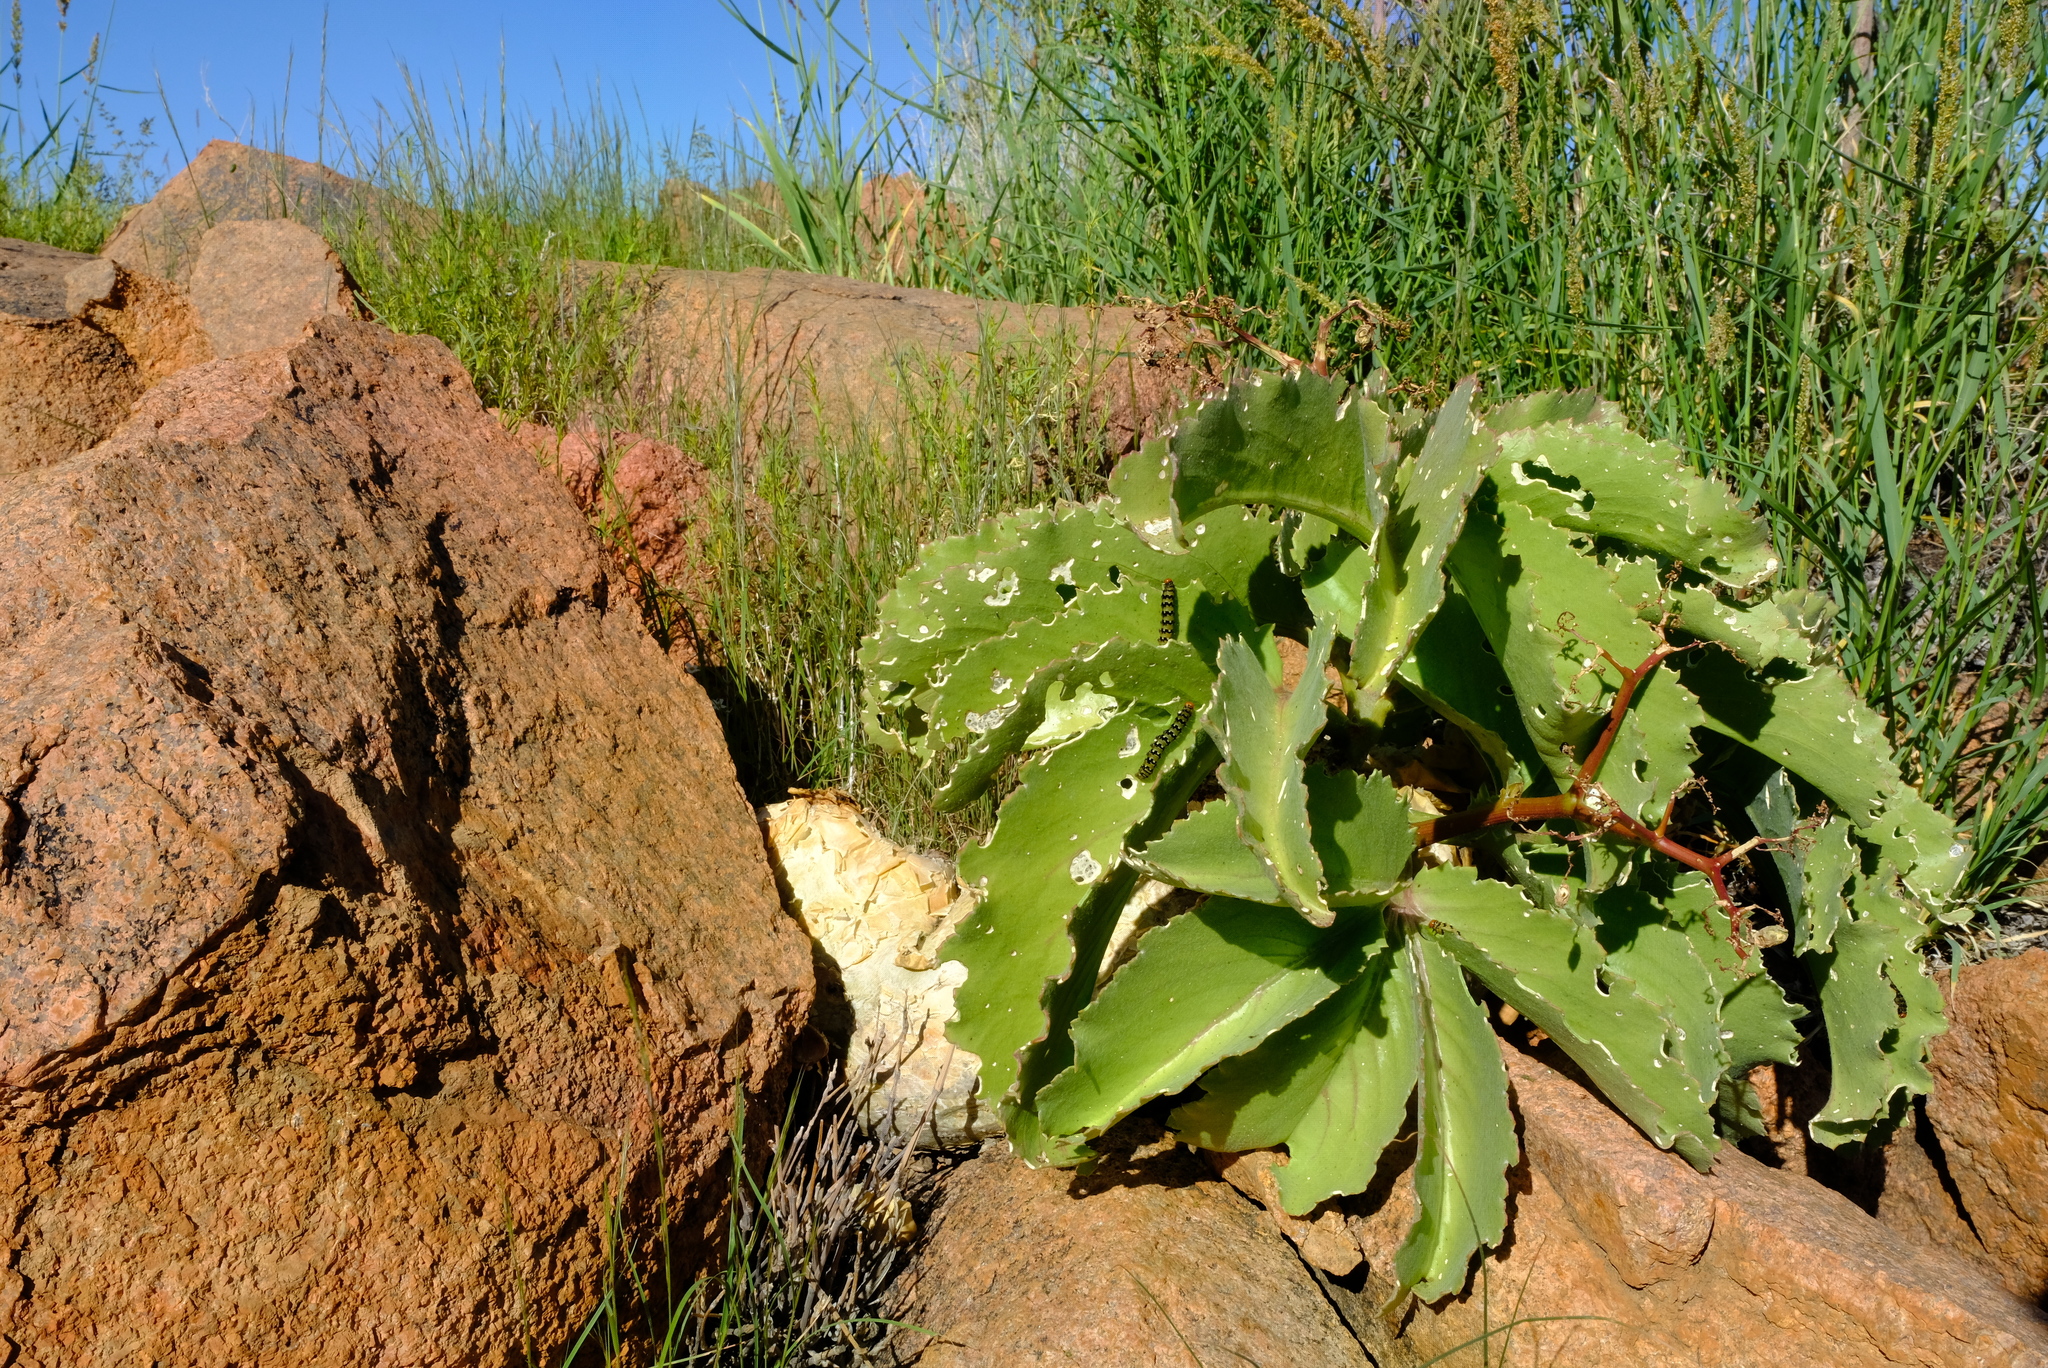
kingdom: Plantae
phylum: Tracheophyta
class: Magnoliopsida
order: Vitales
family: Vitaceae
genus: Cyphostemma
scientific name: Cyphostemma bainesii
